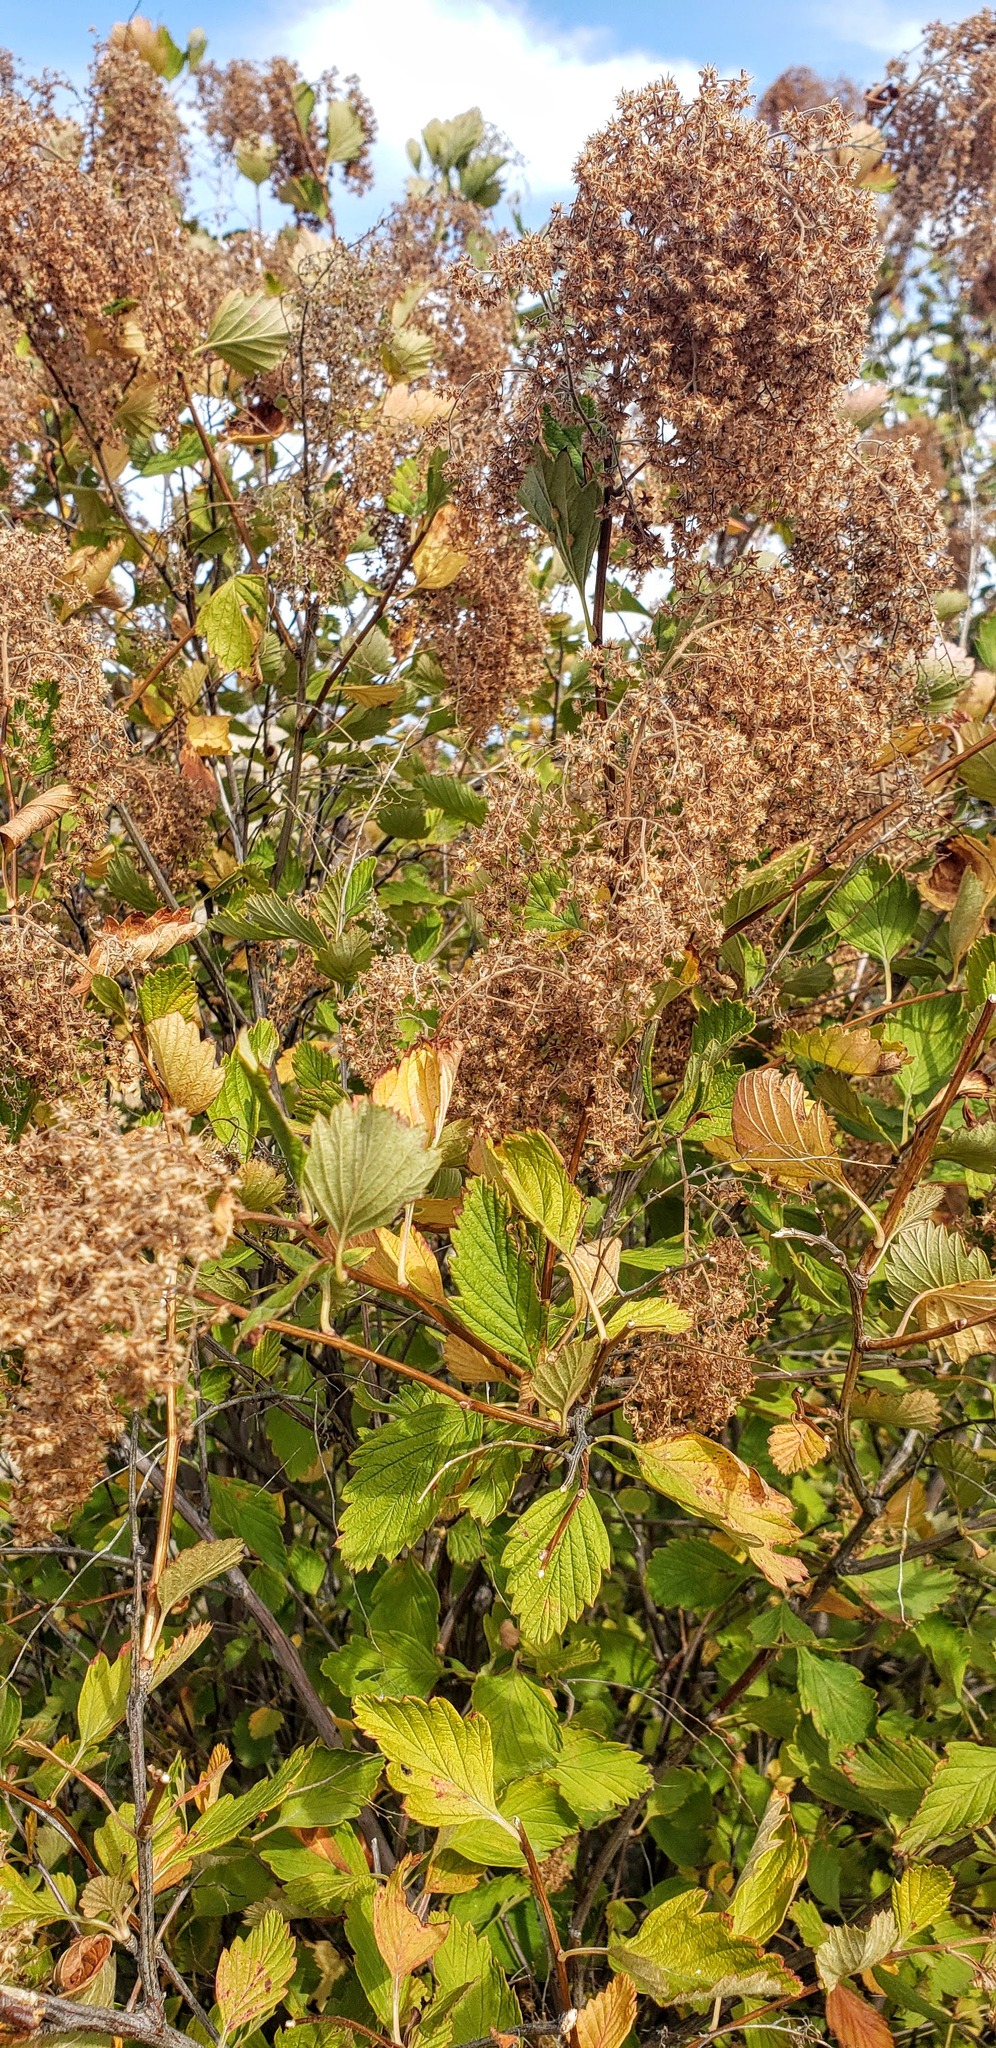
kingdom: Plantae
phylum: Tracheophyta
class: Magnoliopsida
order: Rosales
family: Rosaceae
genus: Holodiscus
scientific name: Holodiscus discolor
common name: Oceanspray
